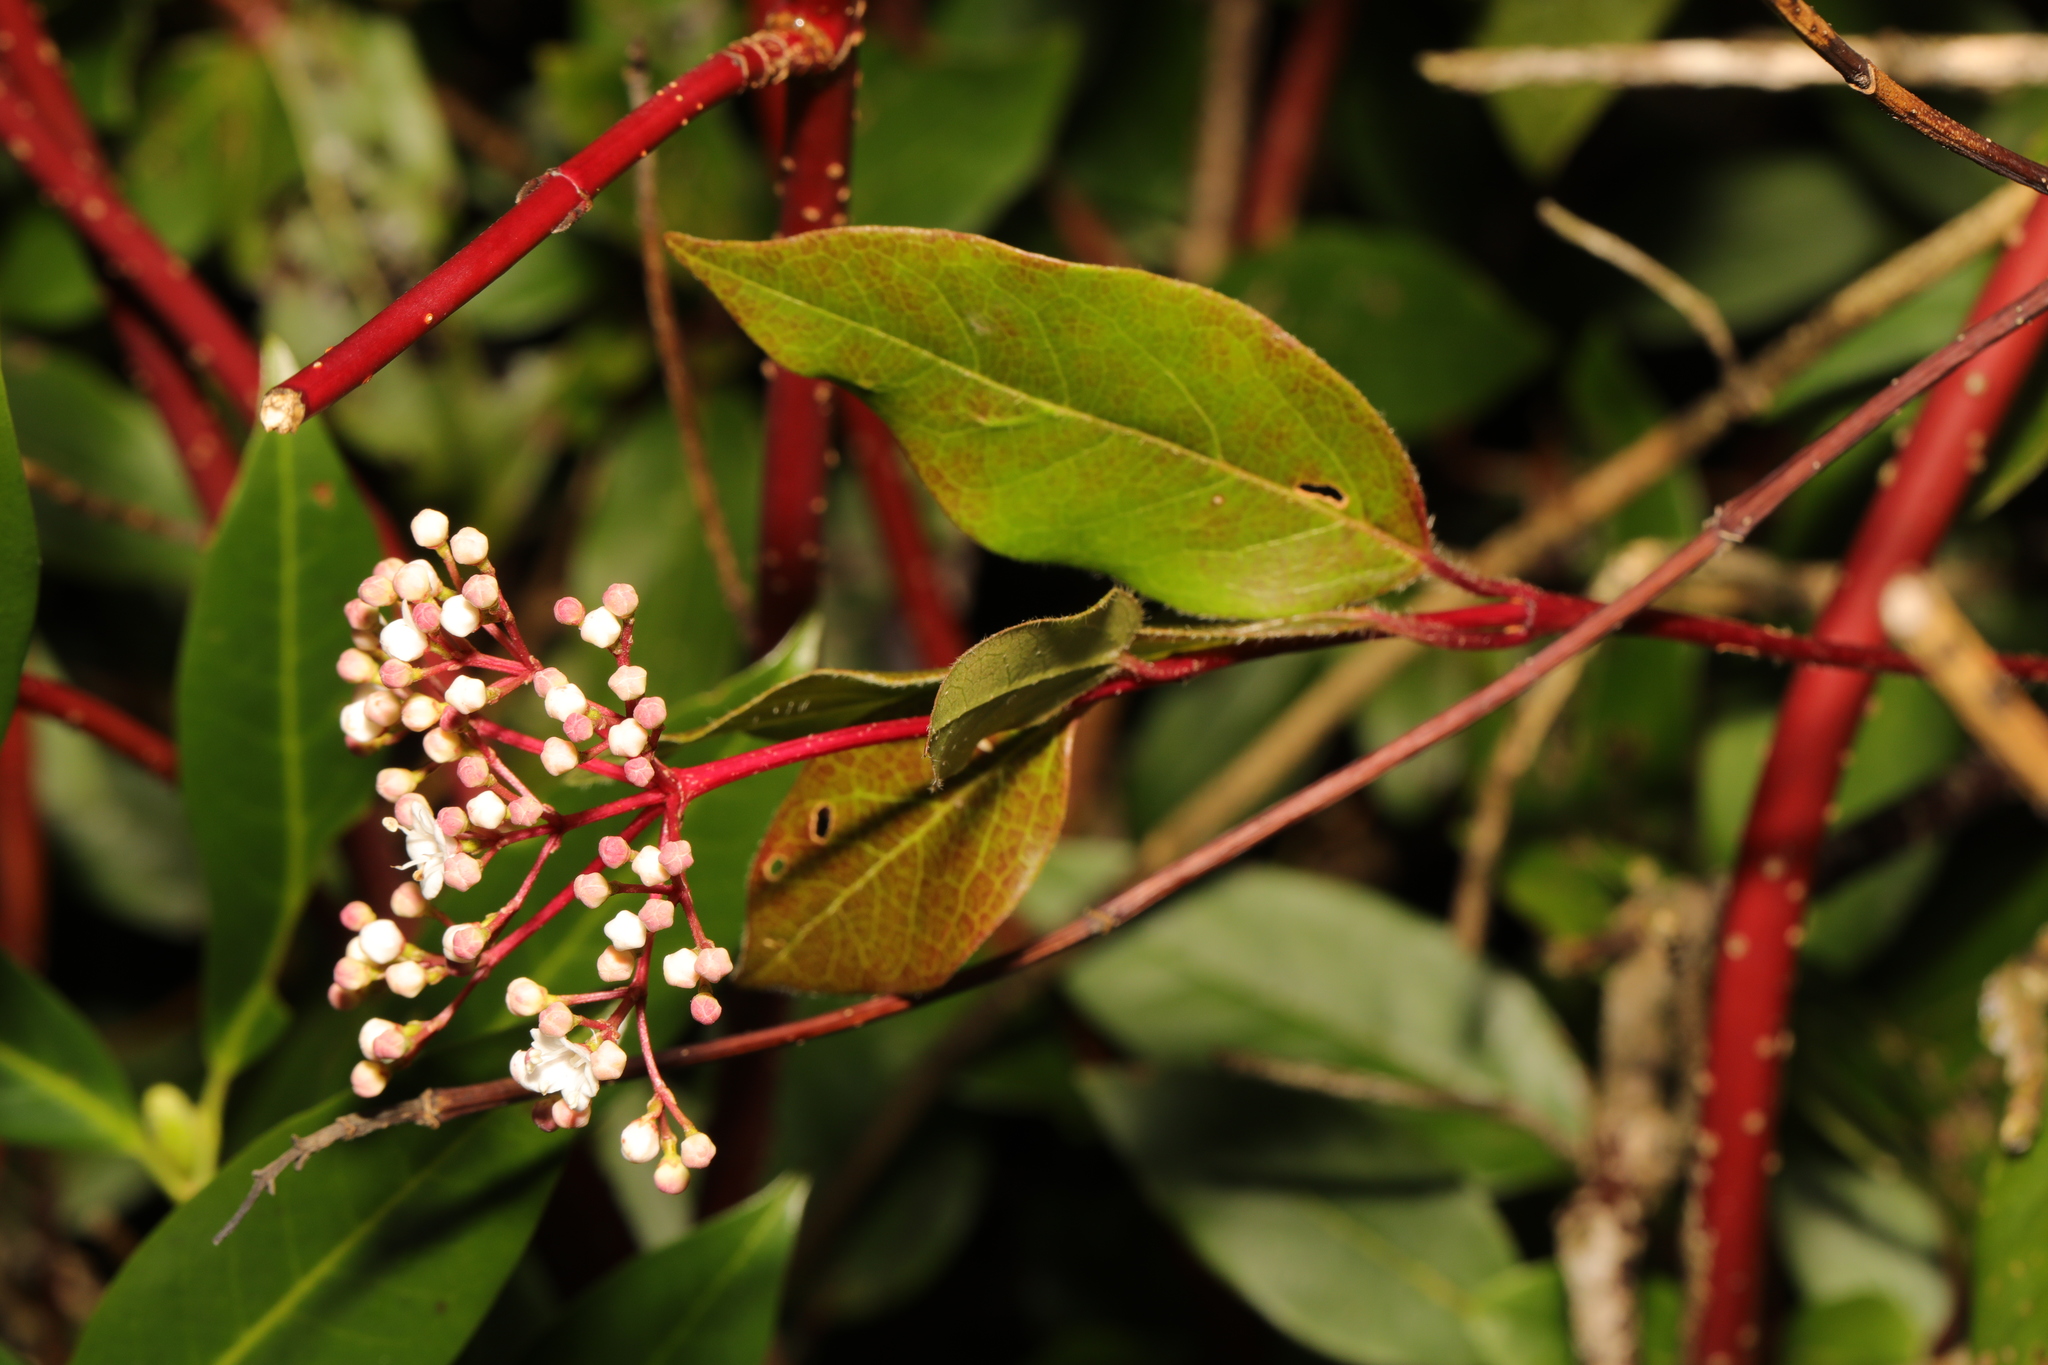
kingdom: Plantae
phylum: Tracheophyta
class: Magnoliopsida
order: Dipsacales
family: Viburnaceae
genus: Viburnum
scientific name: Viburnum tinus
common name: Laurustinus
